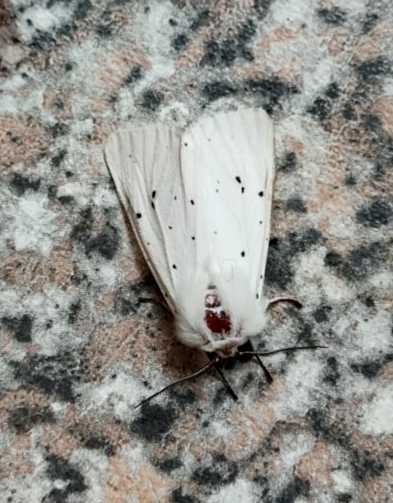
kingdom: Animalia
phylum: Arthropoda
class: Insecta
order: Lepidoptera
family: Erebidae
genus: Spilosoma
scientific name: Spilosoma lubricipeda
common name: White ermine
